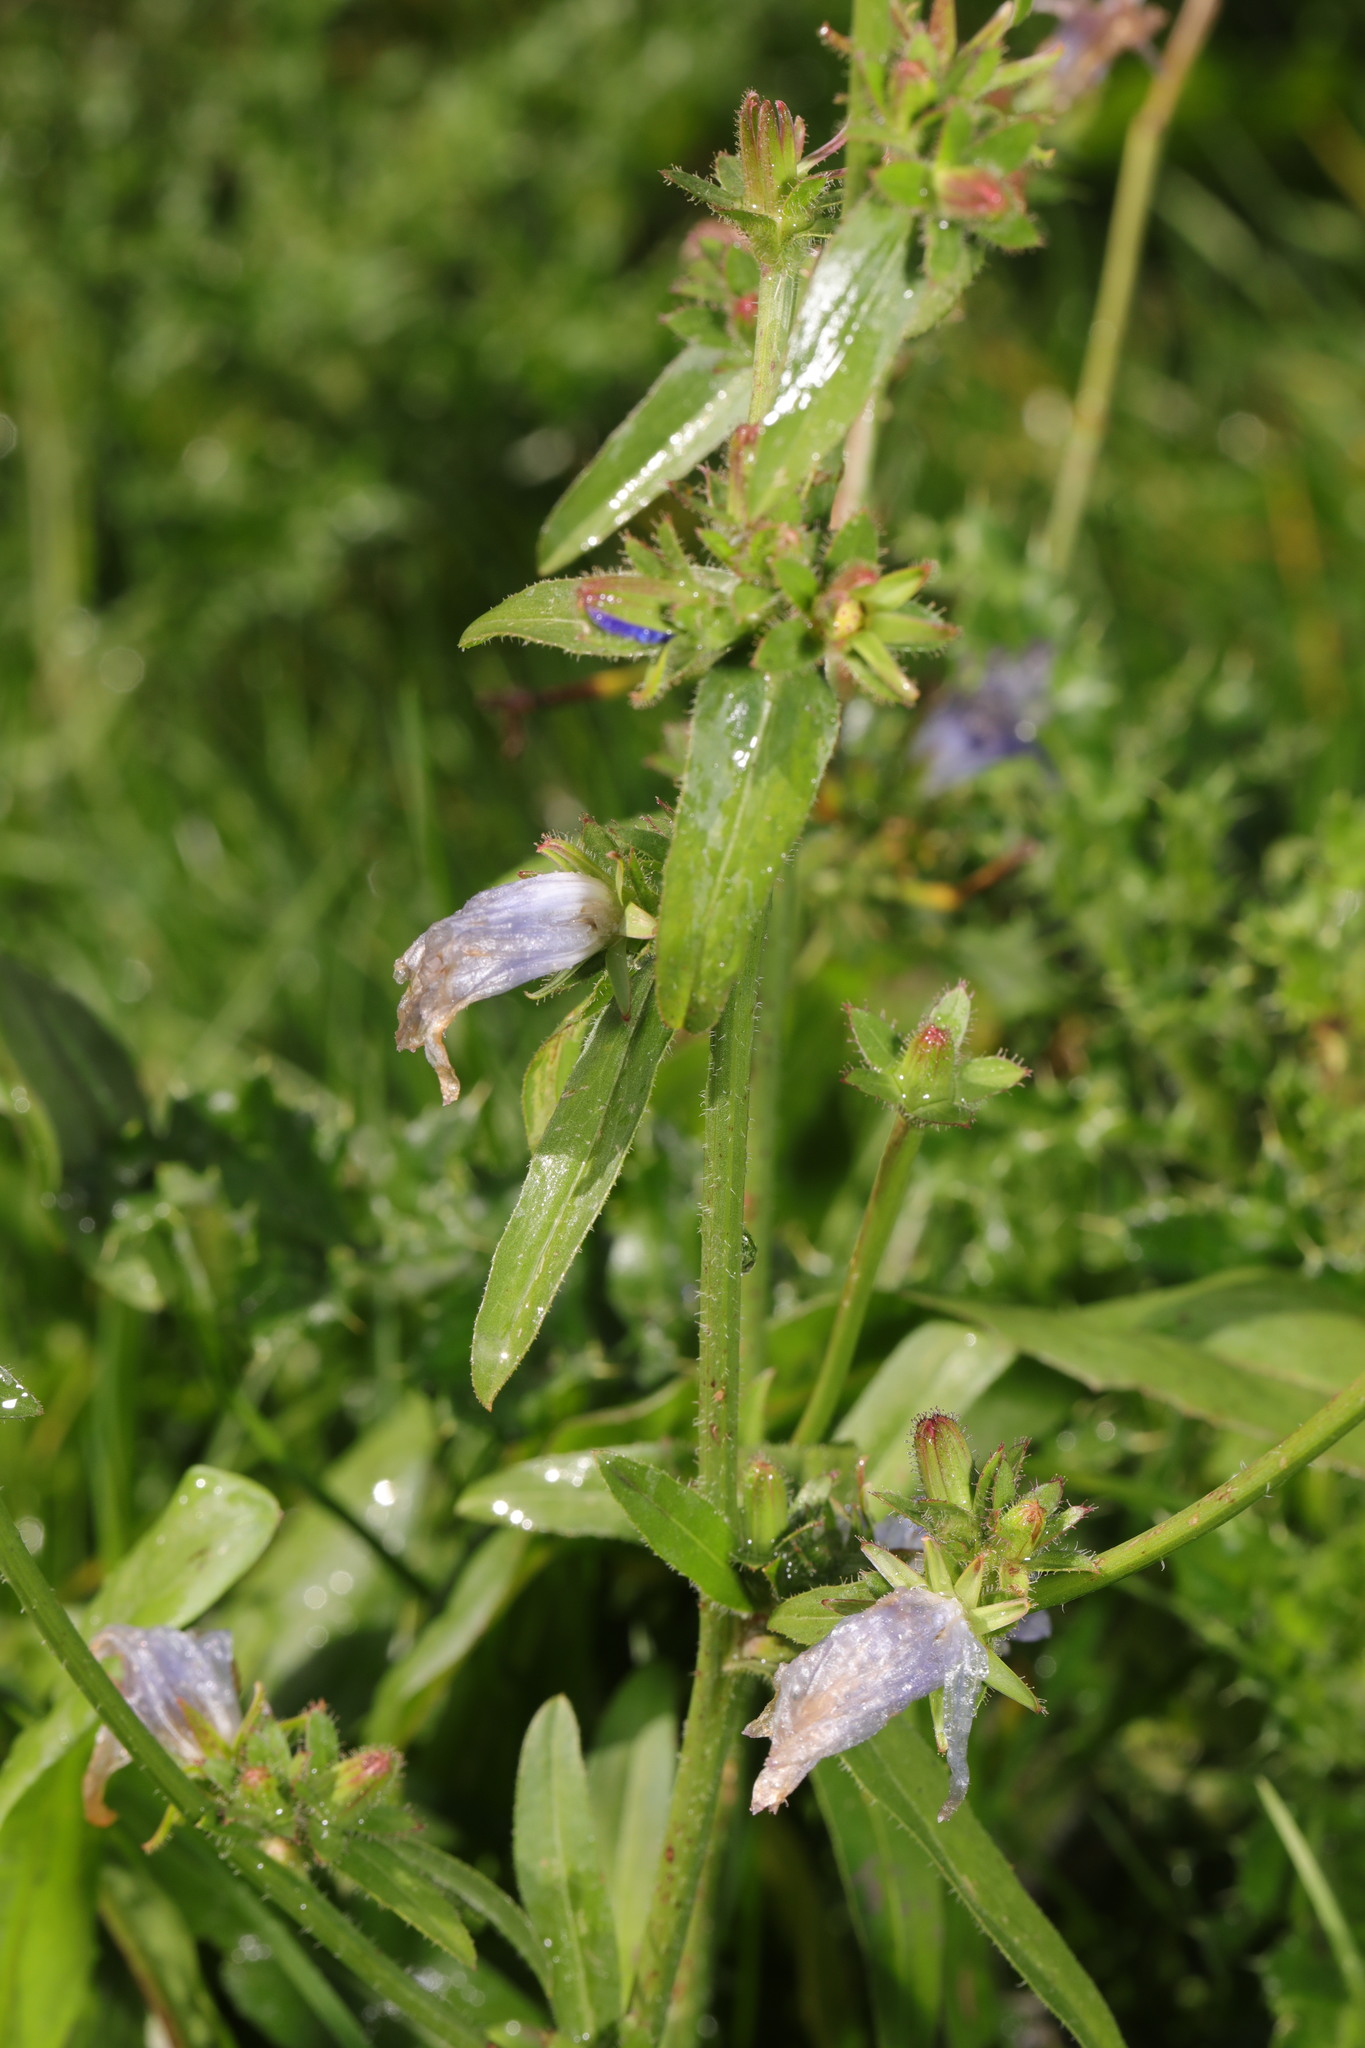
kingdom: Plantae
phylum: Tracheophyta
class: Magnoliopsida
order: Asterales
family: Asteraceae
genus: Cichorium
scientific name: Cichorium intybus
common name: Chicory
